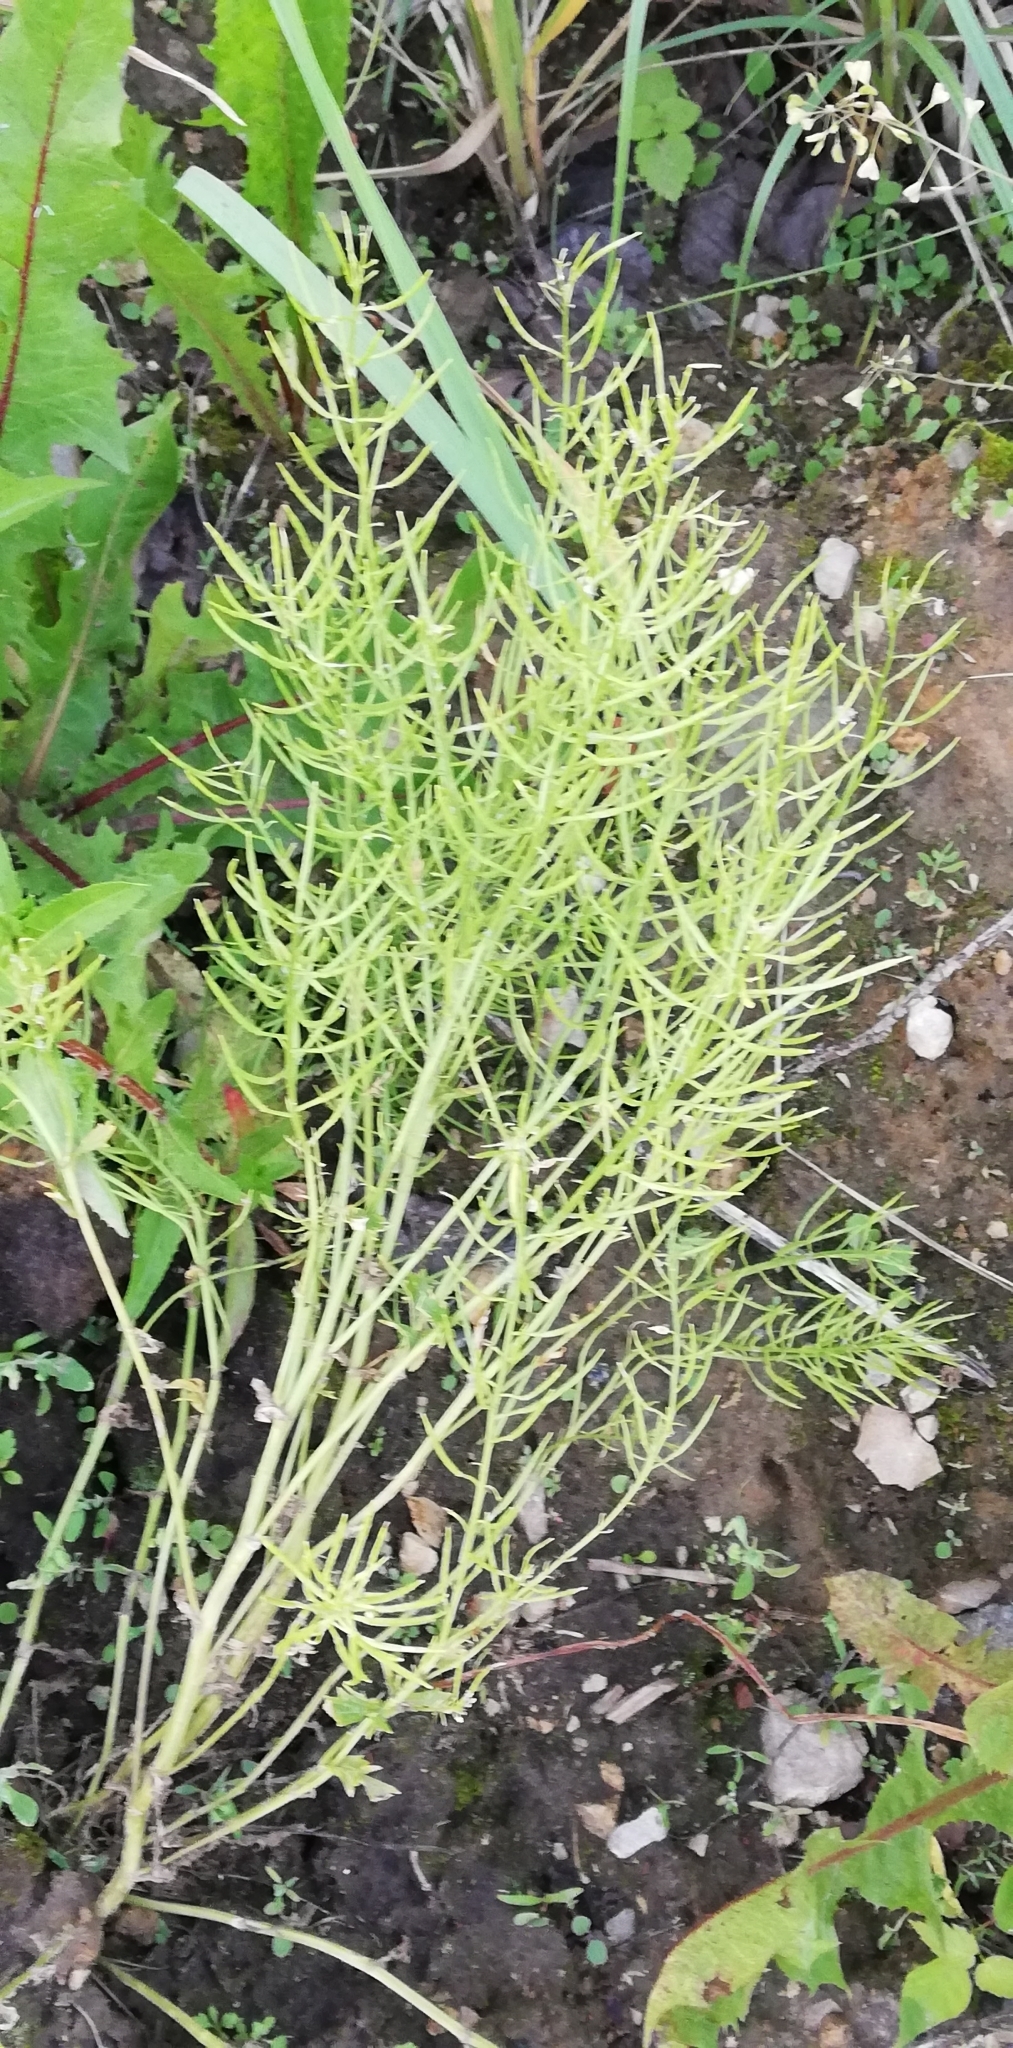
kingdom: Plantae
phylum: Tracheophyta
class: Magnoliopsida
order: Brassicales
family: Brassicaceae
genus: Barbarea
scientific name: Barbarea vulgaris
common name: Cressy-greens
